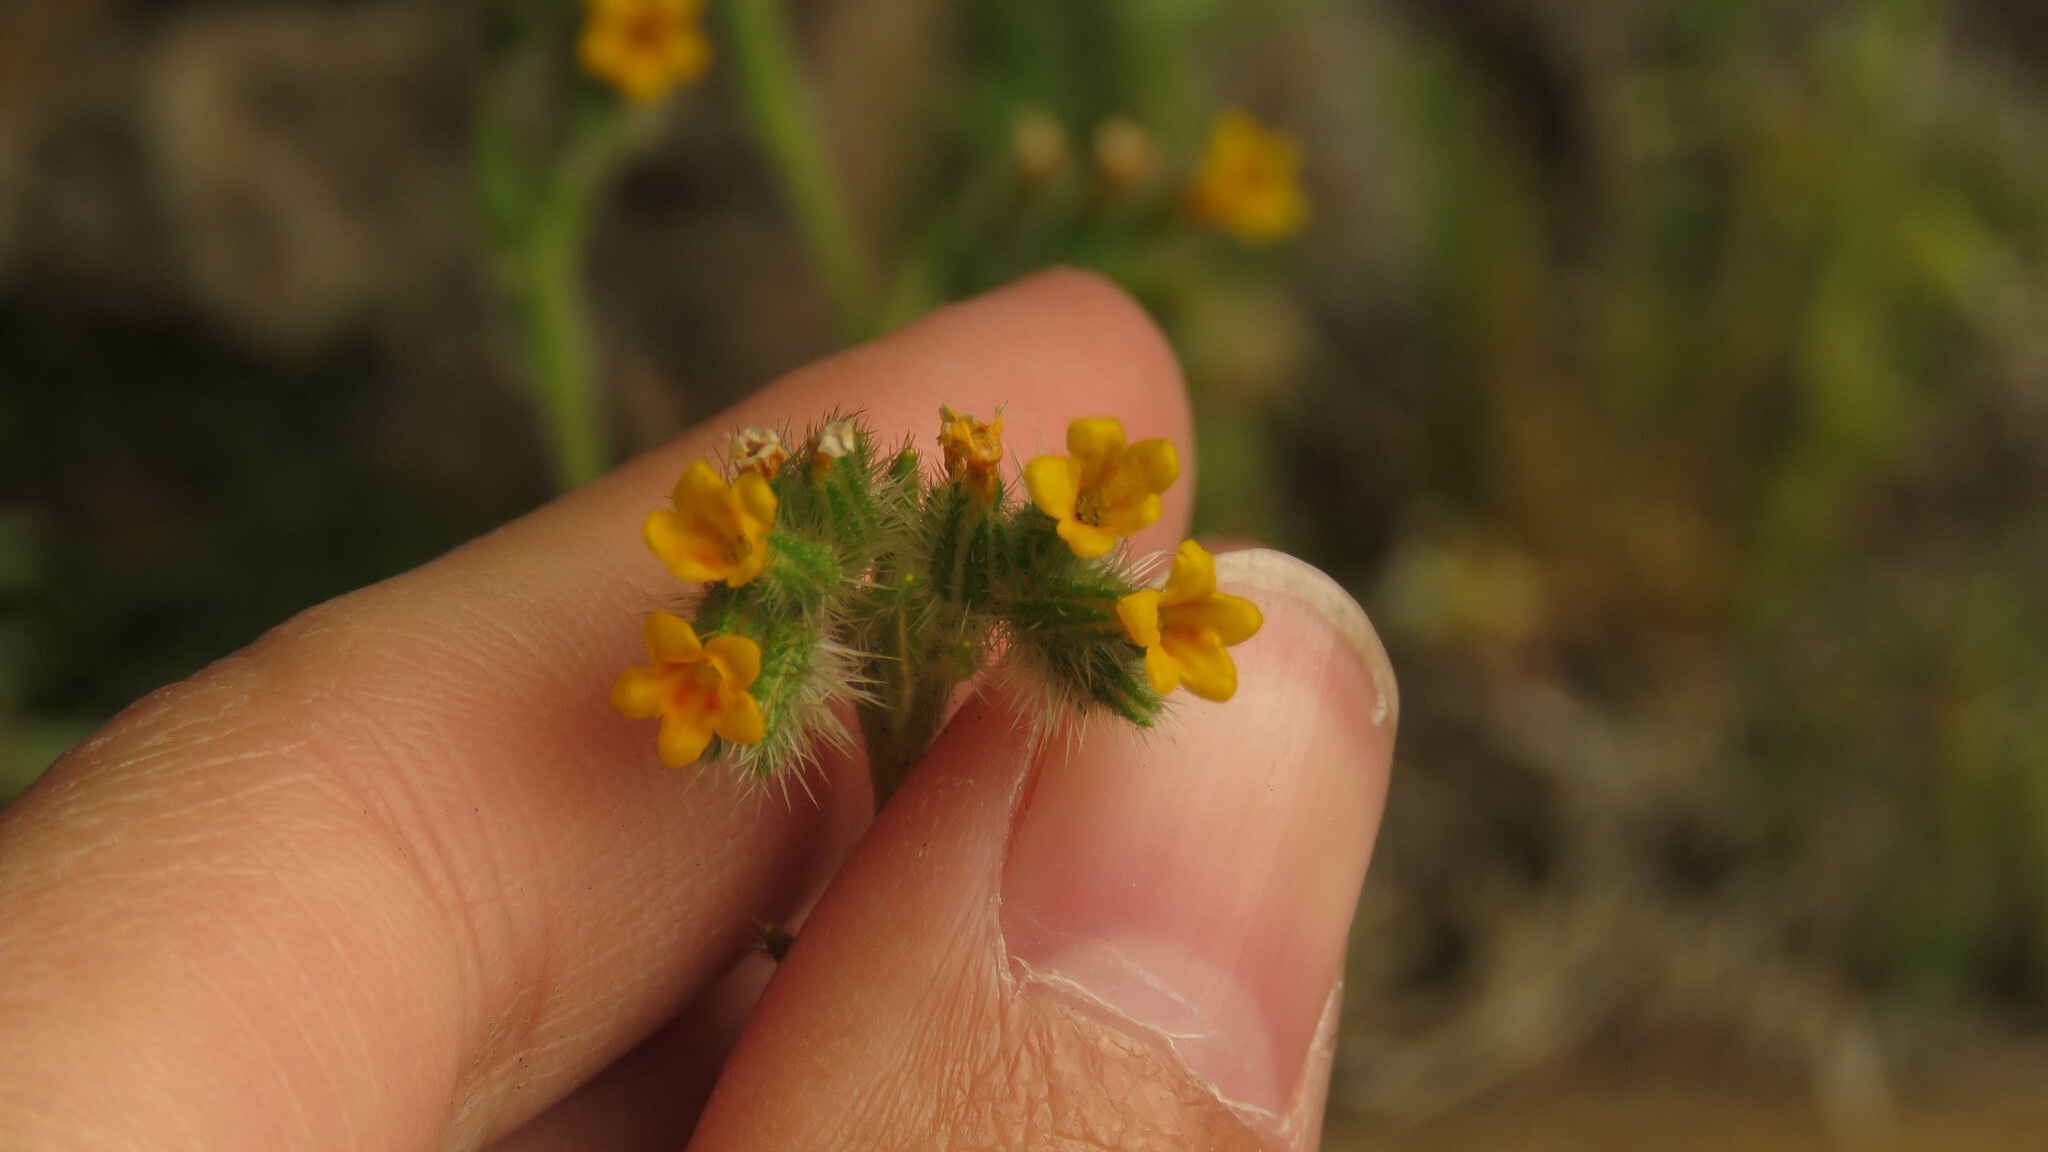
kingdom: Plantae
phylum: Tracheophyta
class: Magnoliopsida
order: Boraginales
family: Boraginaceae
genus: Amsinckia
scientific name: Amsinckia calycina
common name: Hairy fiddleneck
